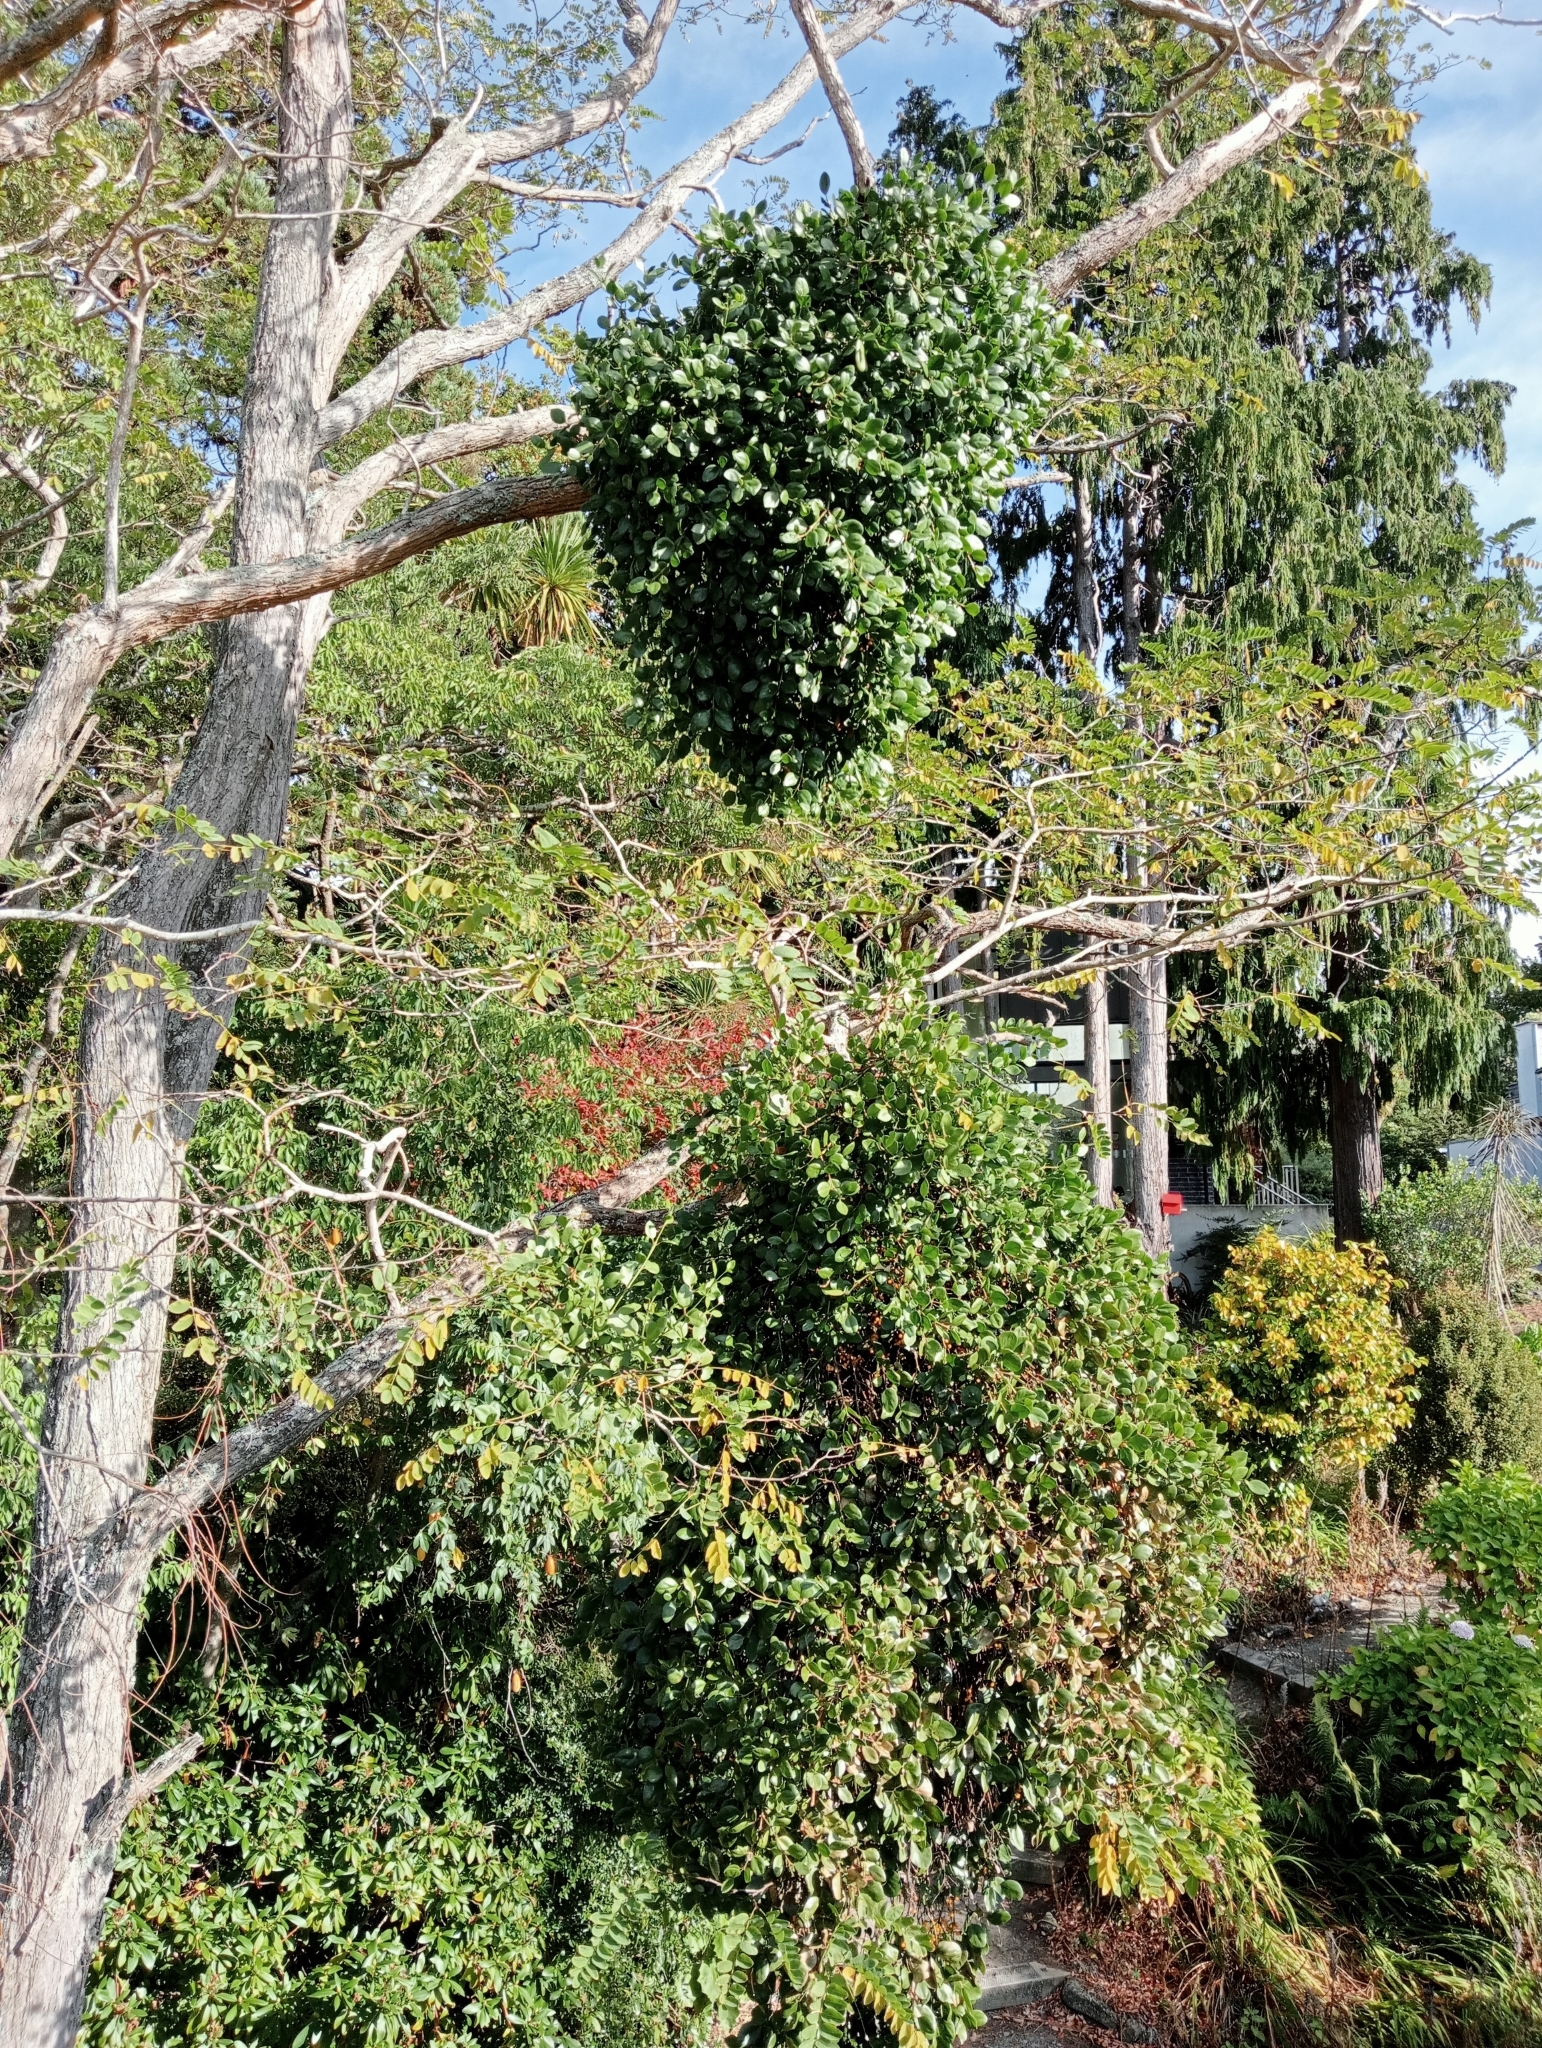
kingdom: Plantae
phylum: Tracheophyta
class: Magnoliopsida
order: Santalales
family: Loranthaceae
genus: Ileostylus
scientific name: Ileostylus micranthus
